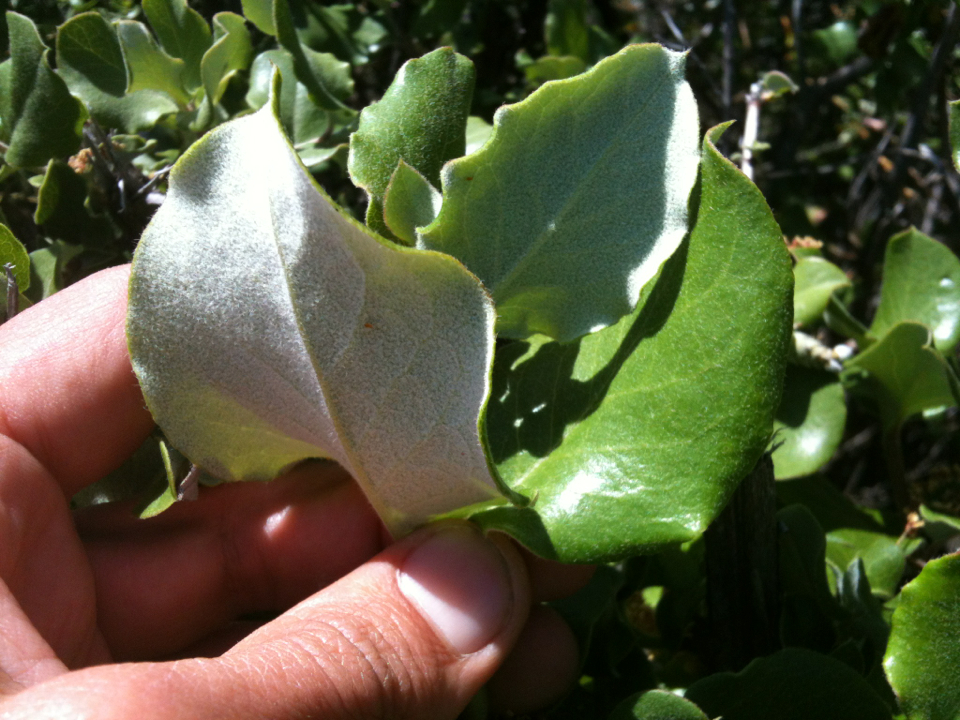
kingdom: Plantae
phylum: Tracheophyta
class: Magnoliopsida
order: Garryales
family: Garryaceae
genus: Garrya
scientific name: Garrya elliptica
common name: Silk-tassel
